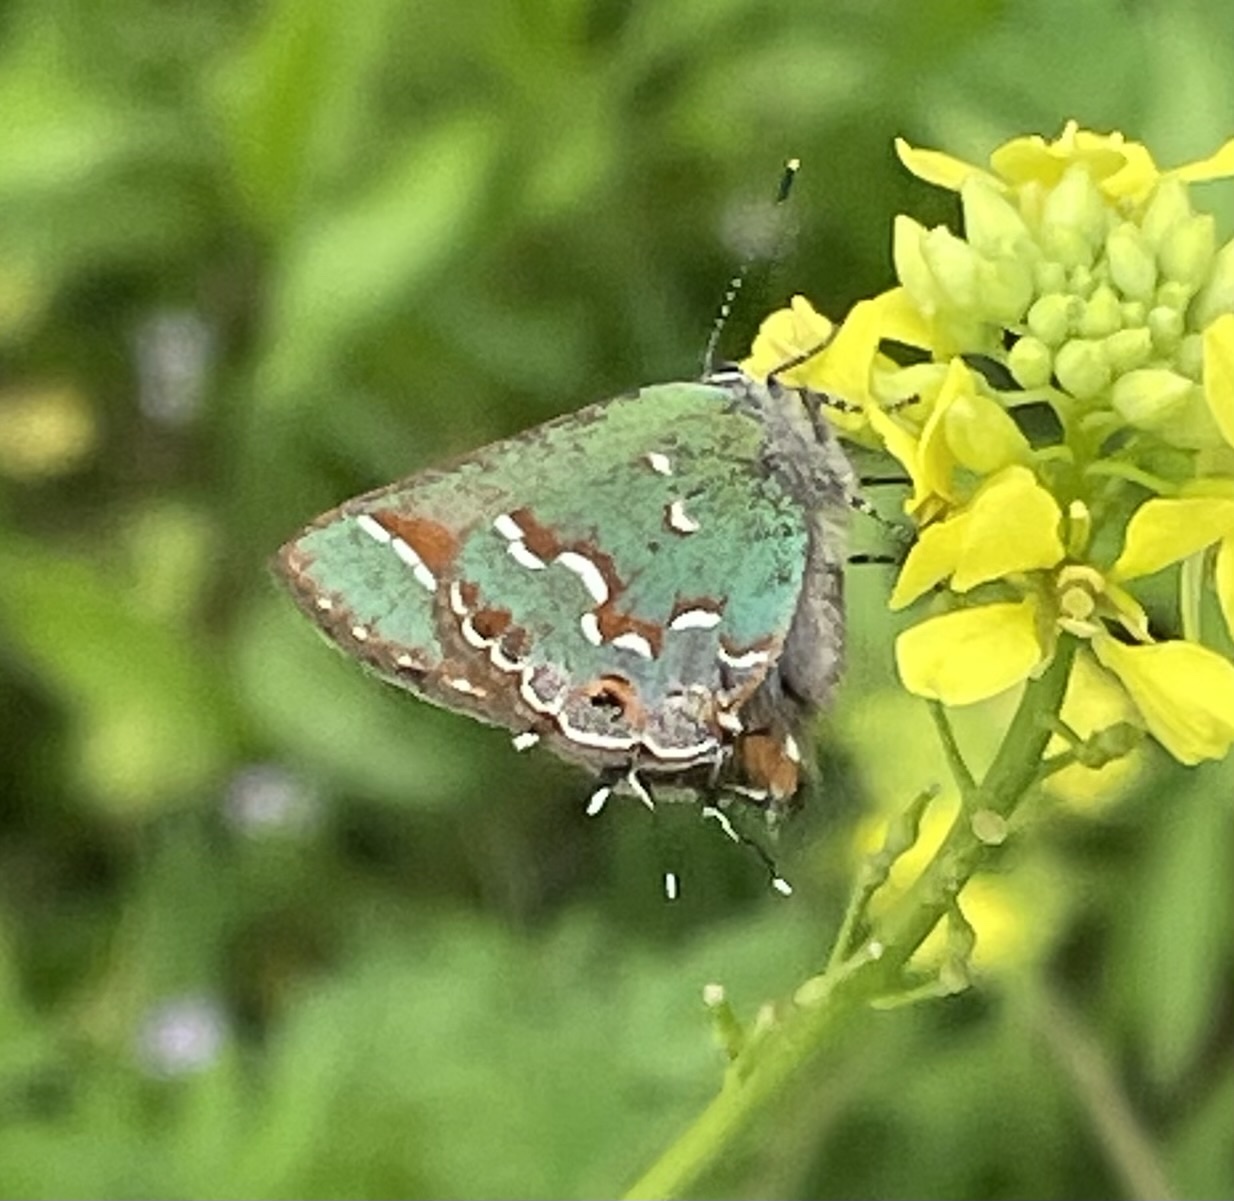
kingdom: Animalia
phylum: Arthropoda
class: Insecta
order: Lepidoptera
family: Lycaenidae
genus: Mitoura
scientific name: Mitoura gryneus
